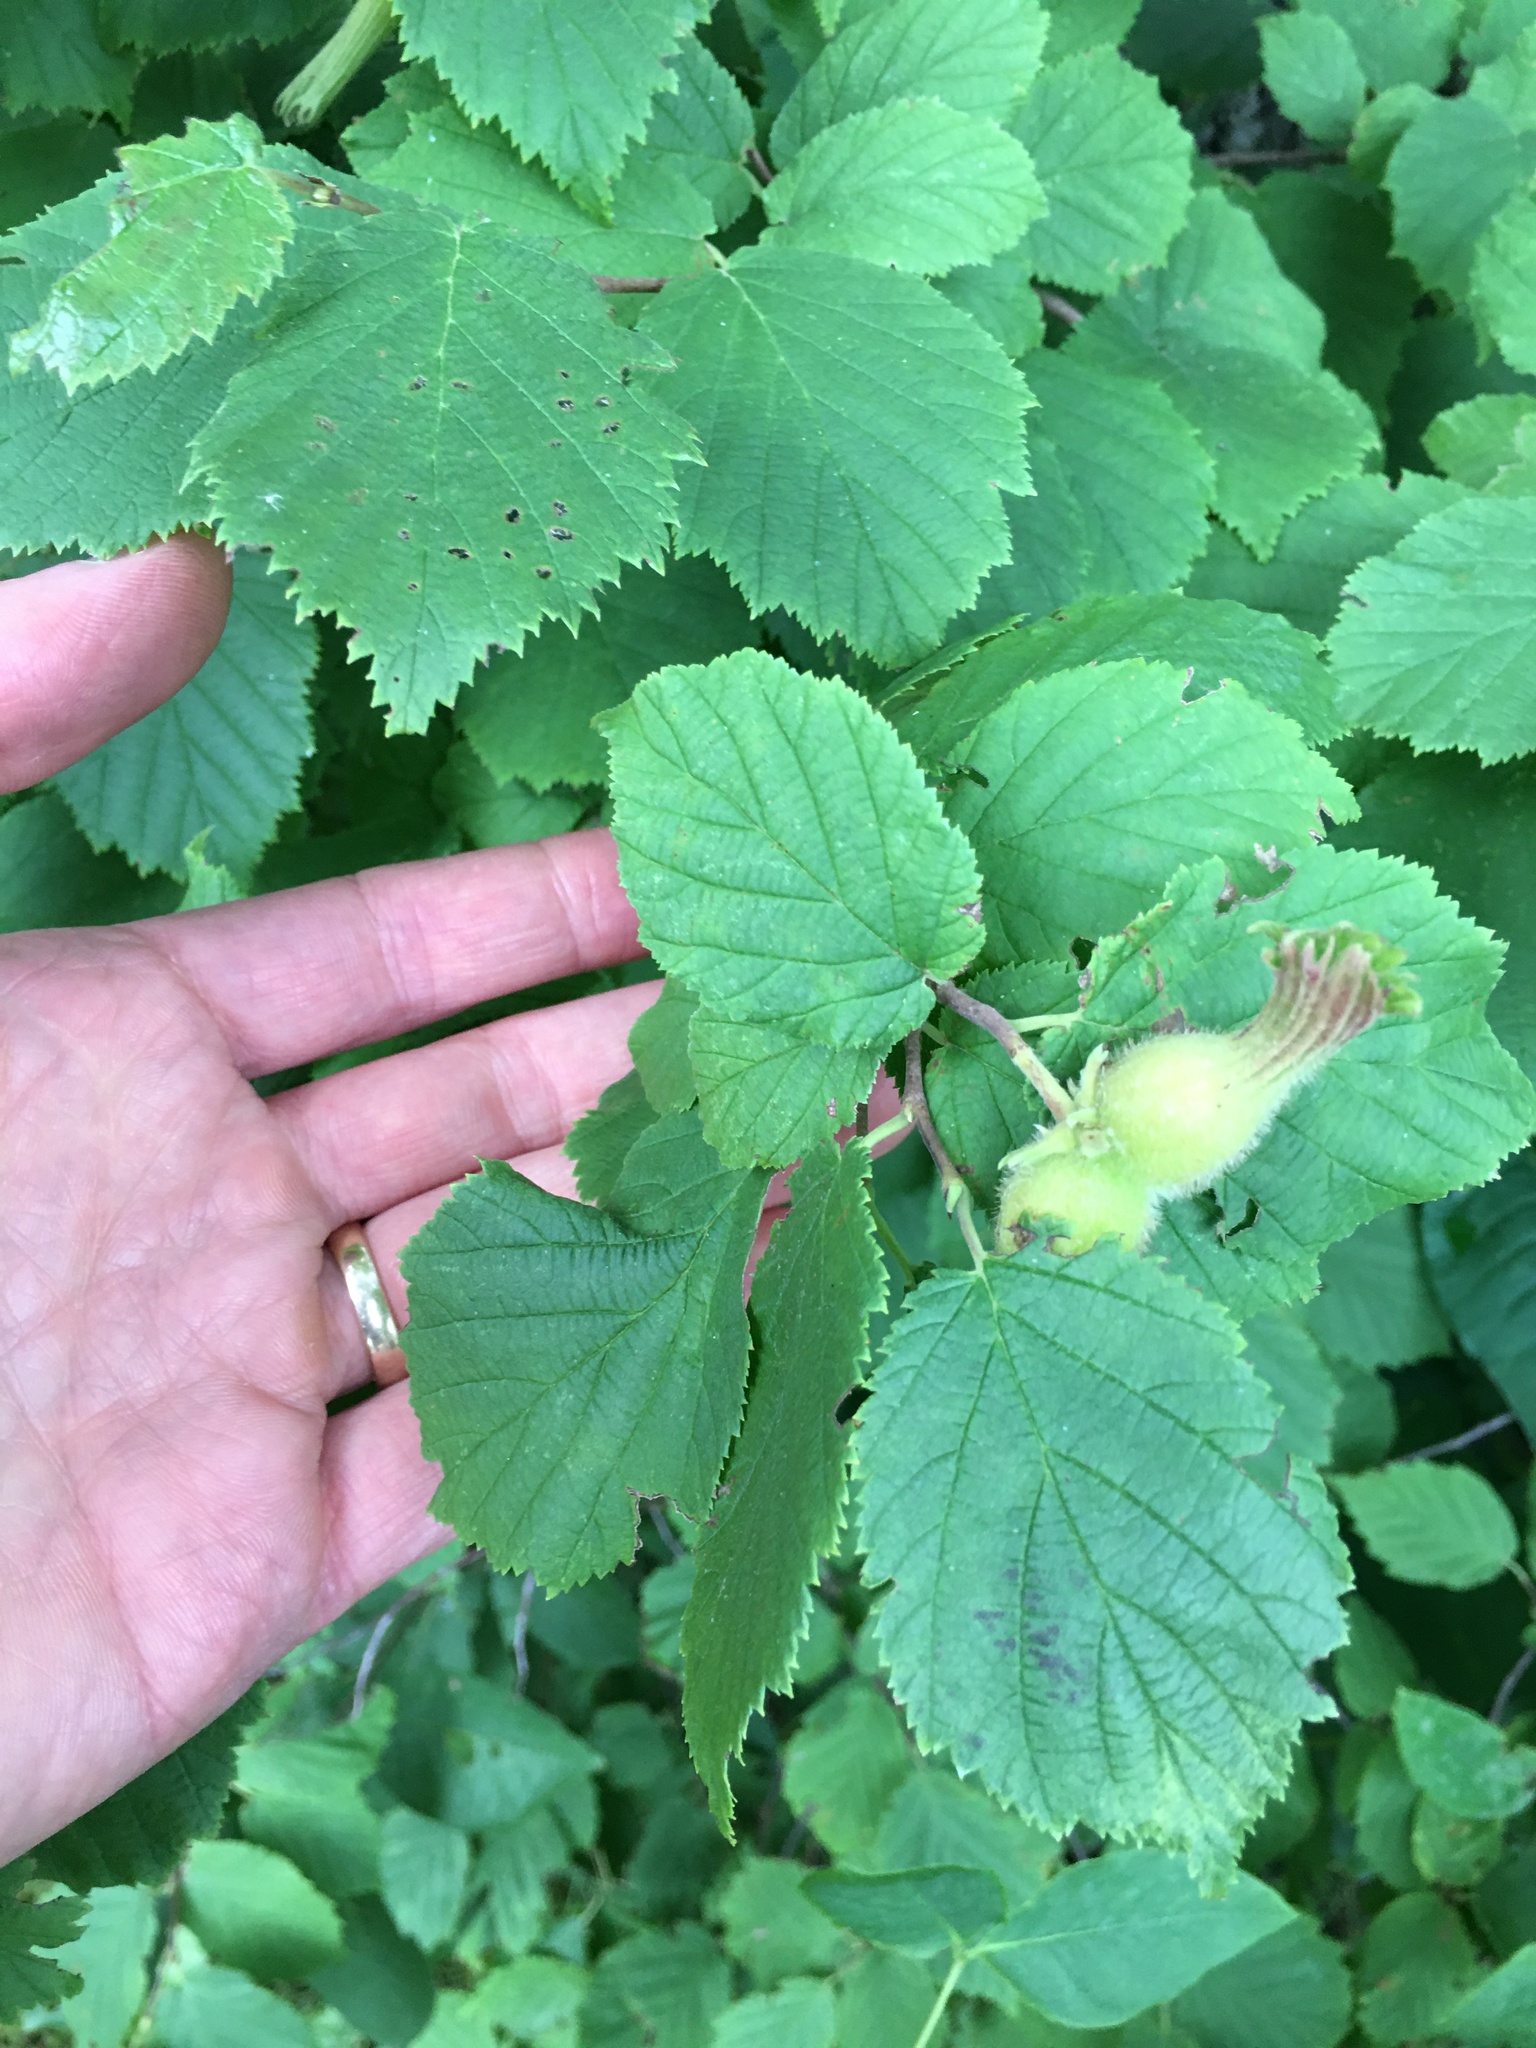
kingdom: Plantae
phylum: Tracheophyta
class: Magnoliopsida
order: Fagales
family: Betulaceae
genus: Corylus
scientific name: Corylus cornuta
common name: Beaked hazel
